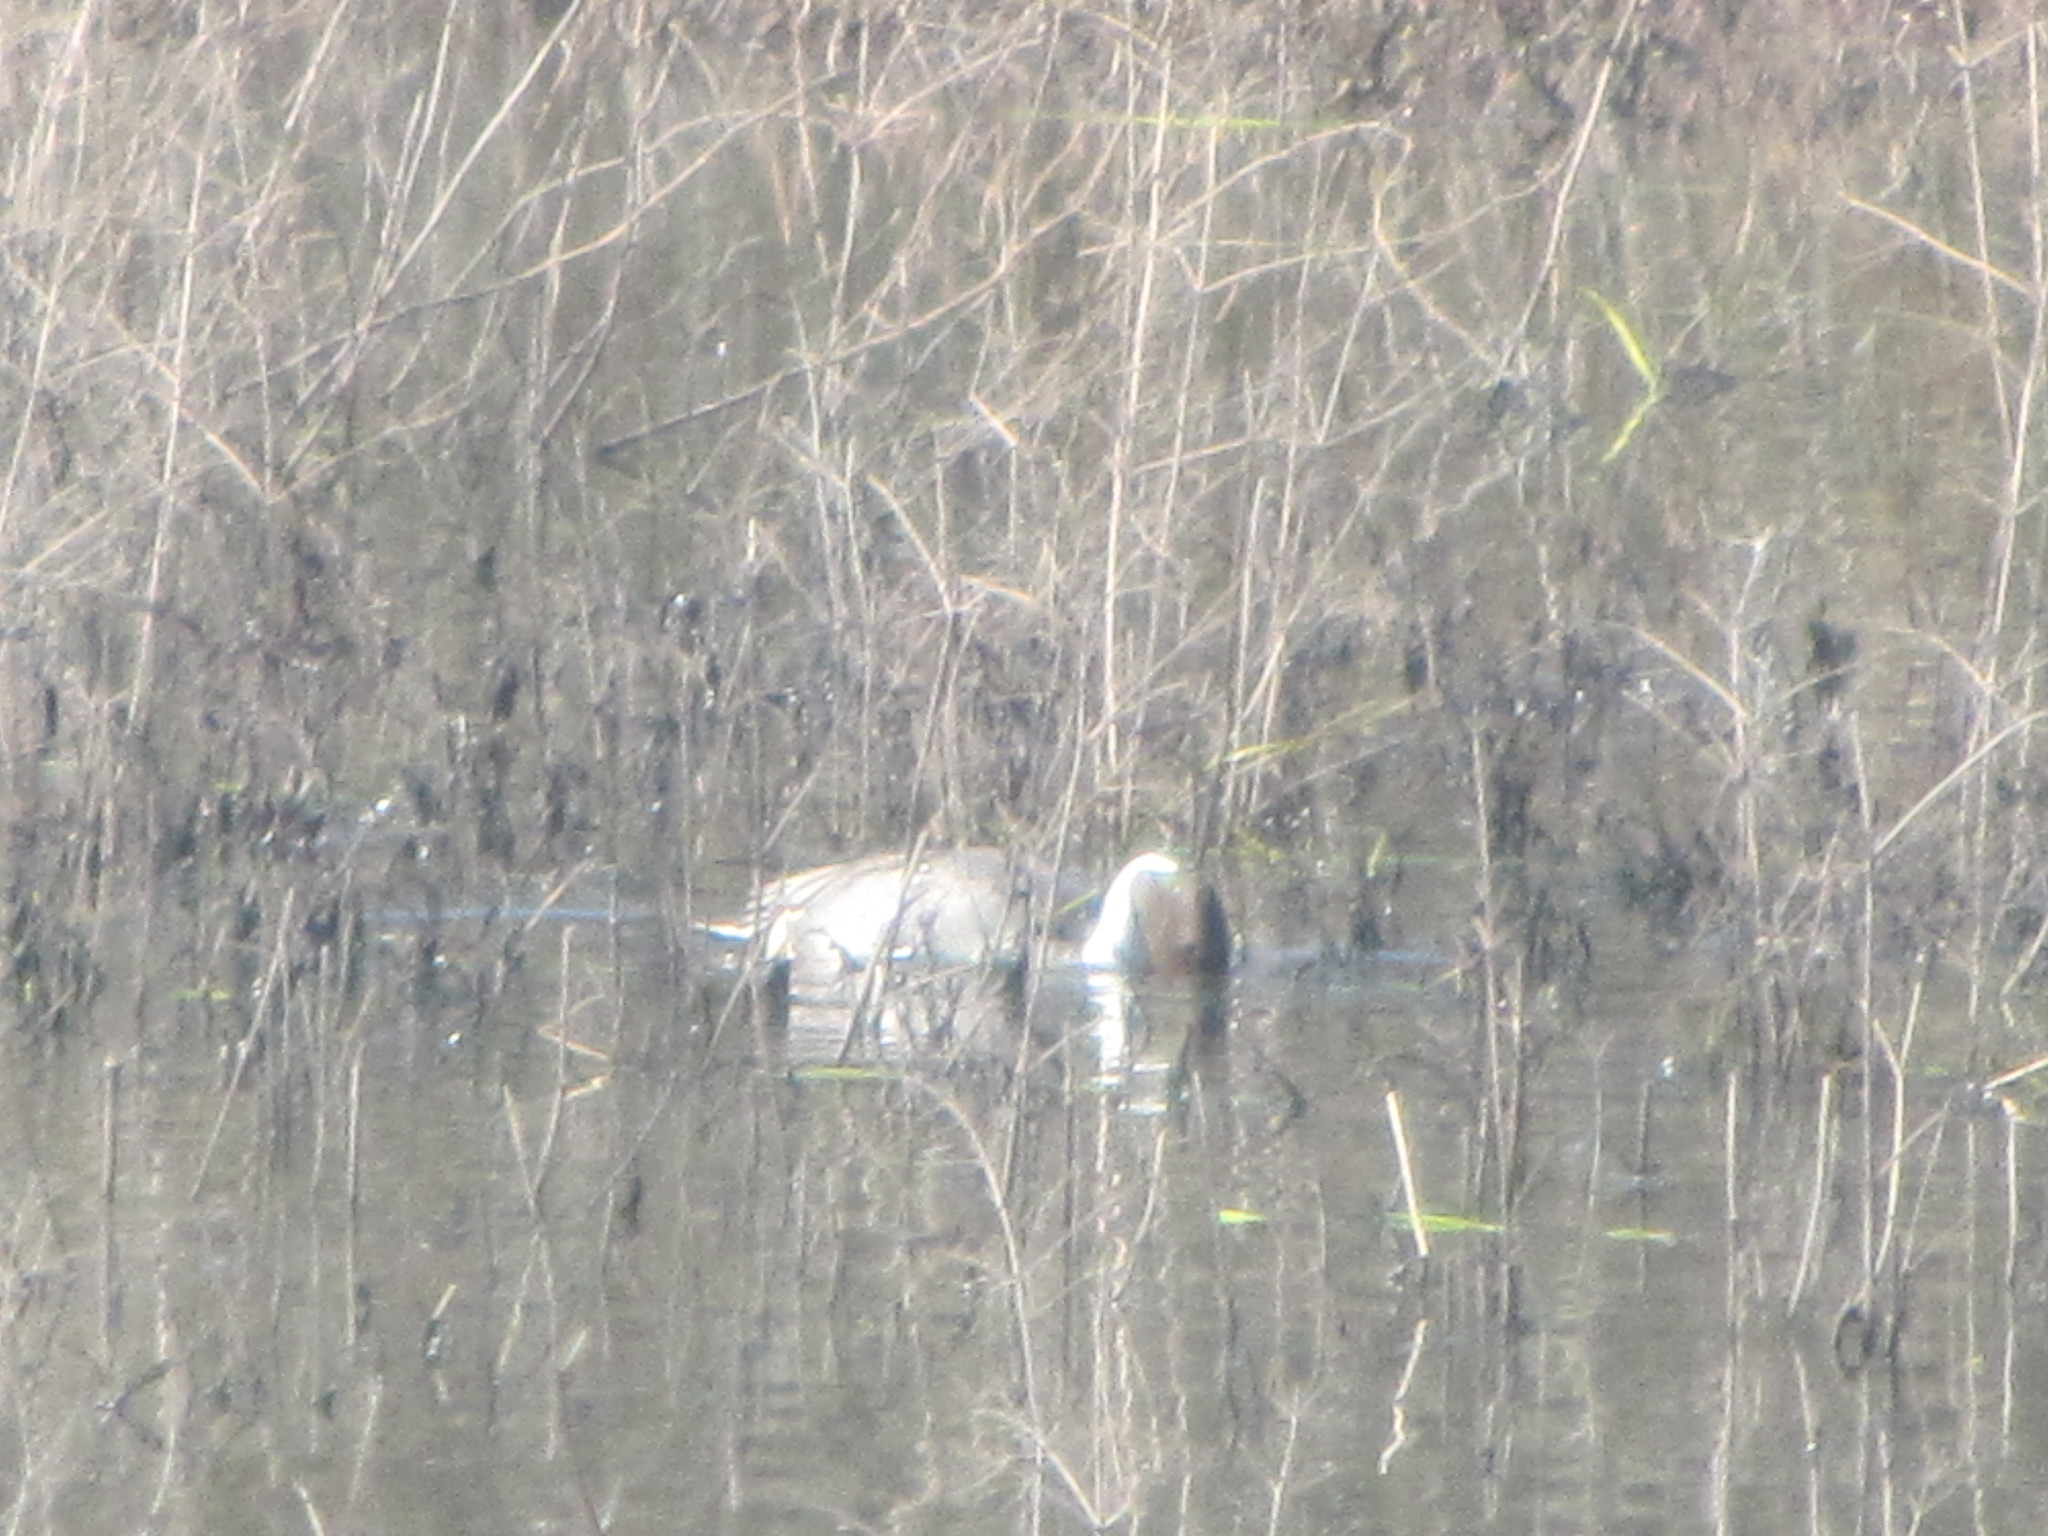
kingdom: Animalia
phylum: Chordata
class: Aves
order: Anseriformes
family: Anatidae
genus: Anas
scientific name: Anas acuta
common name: Northern pintail
